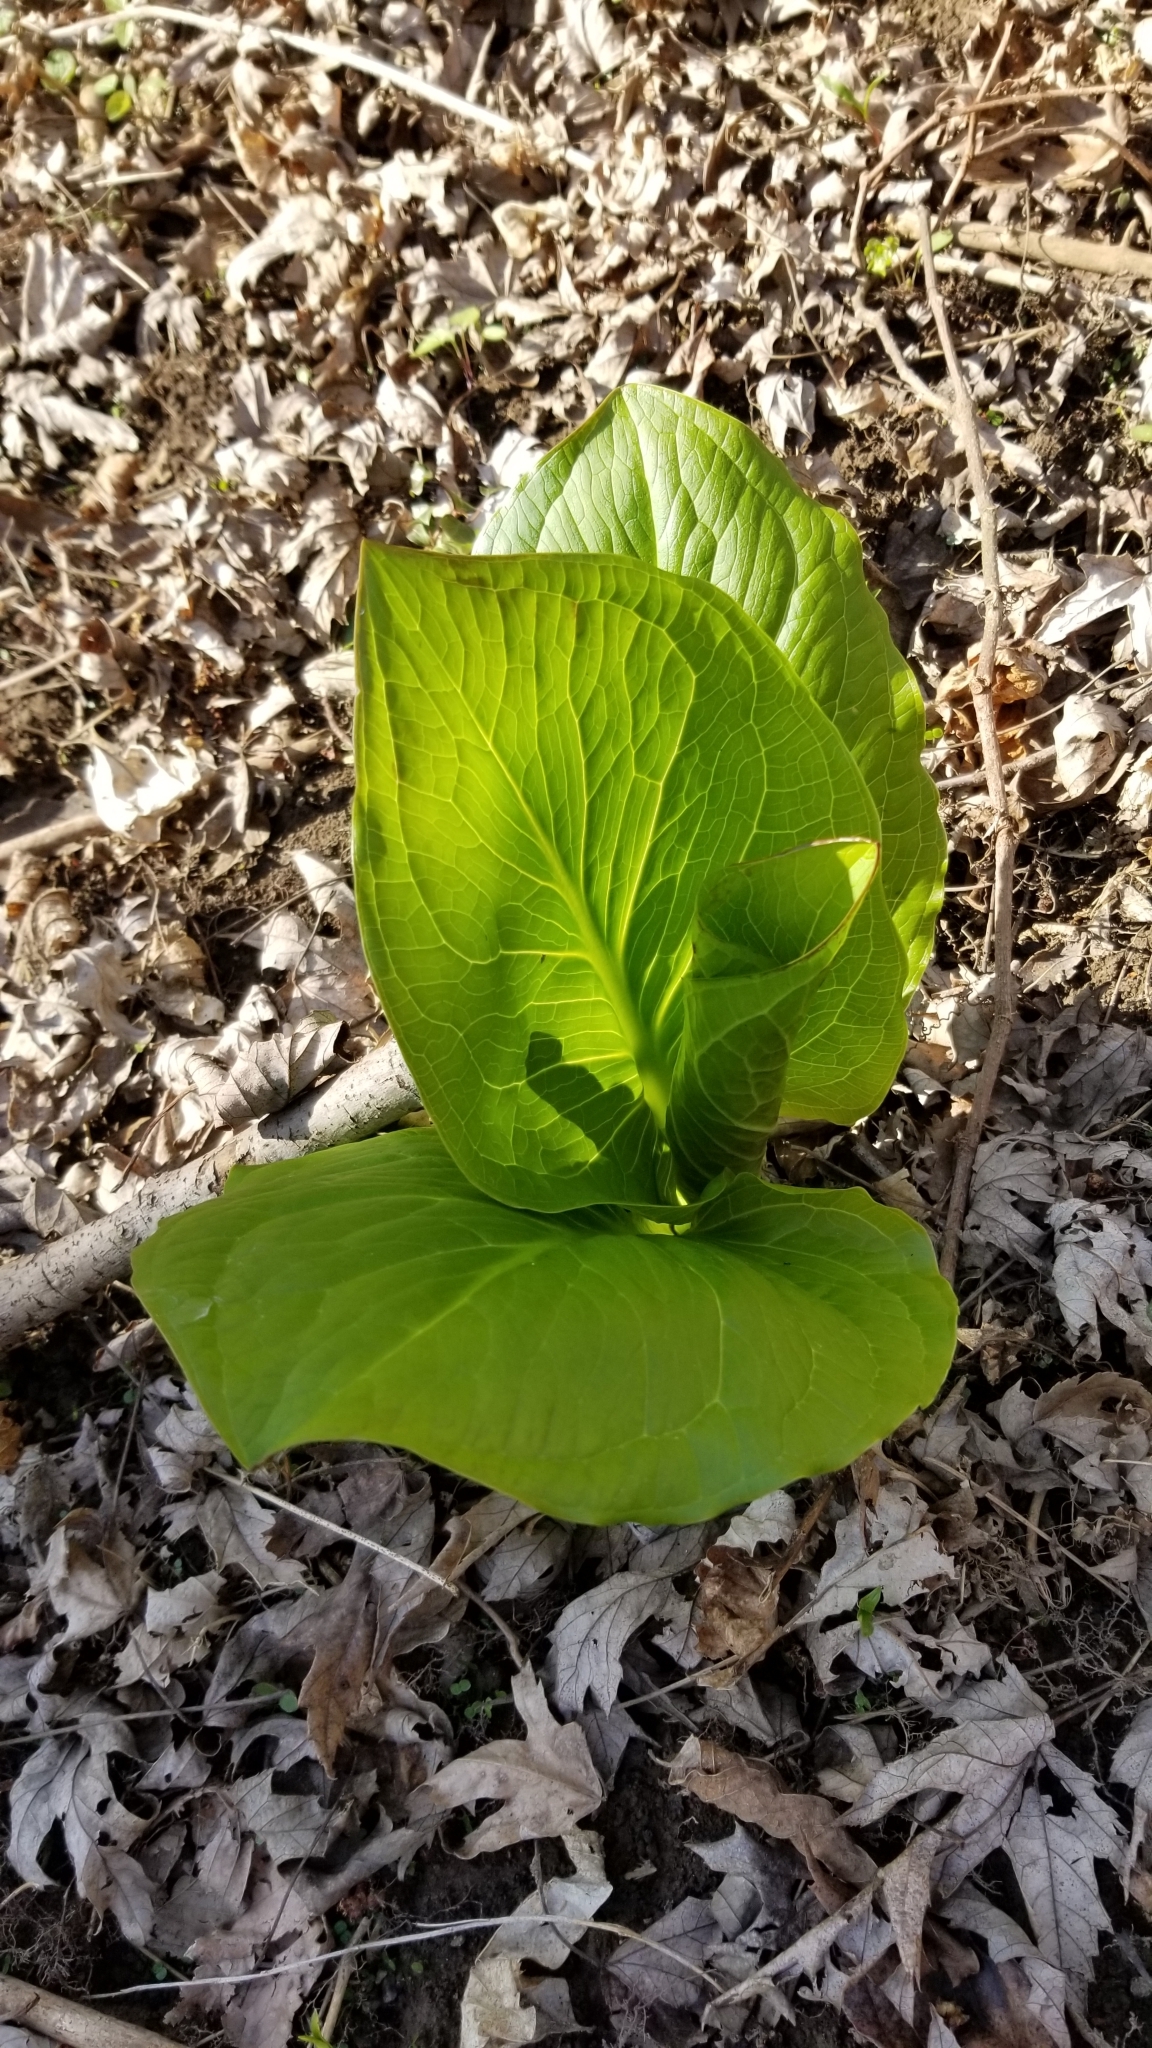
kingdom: Plantae
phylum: Tracheophyta
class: Liliopsida
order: Alismatales
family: Araceae
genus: Symplocarpus
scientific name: Symplocarpus foetidus
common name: Eastern skunk cabbage
